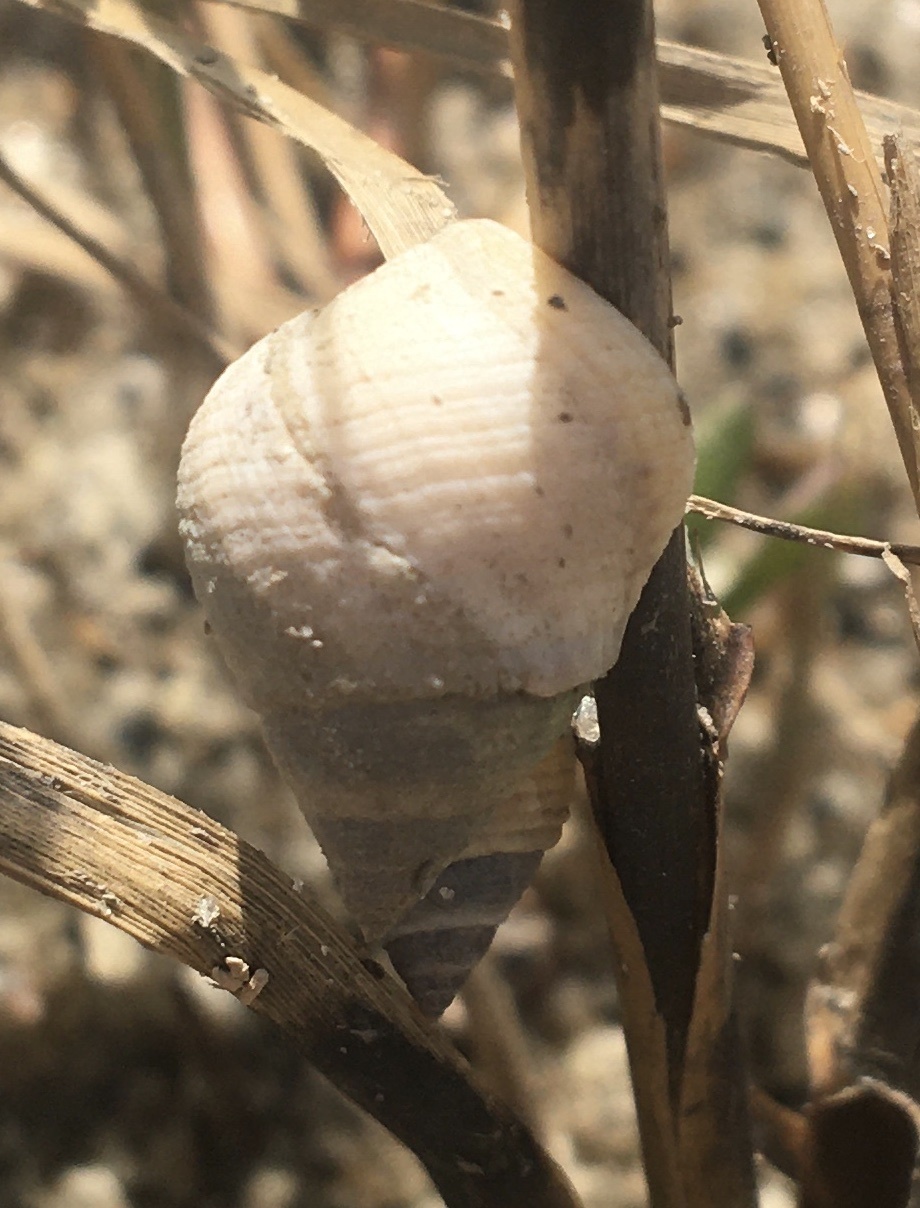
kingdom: Animalia
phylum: Mollusca
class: Gastropoda
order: Littorinimorpha
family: Littorinidae
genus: Littoraria
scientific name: Littoraria irrorata
